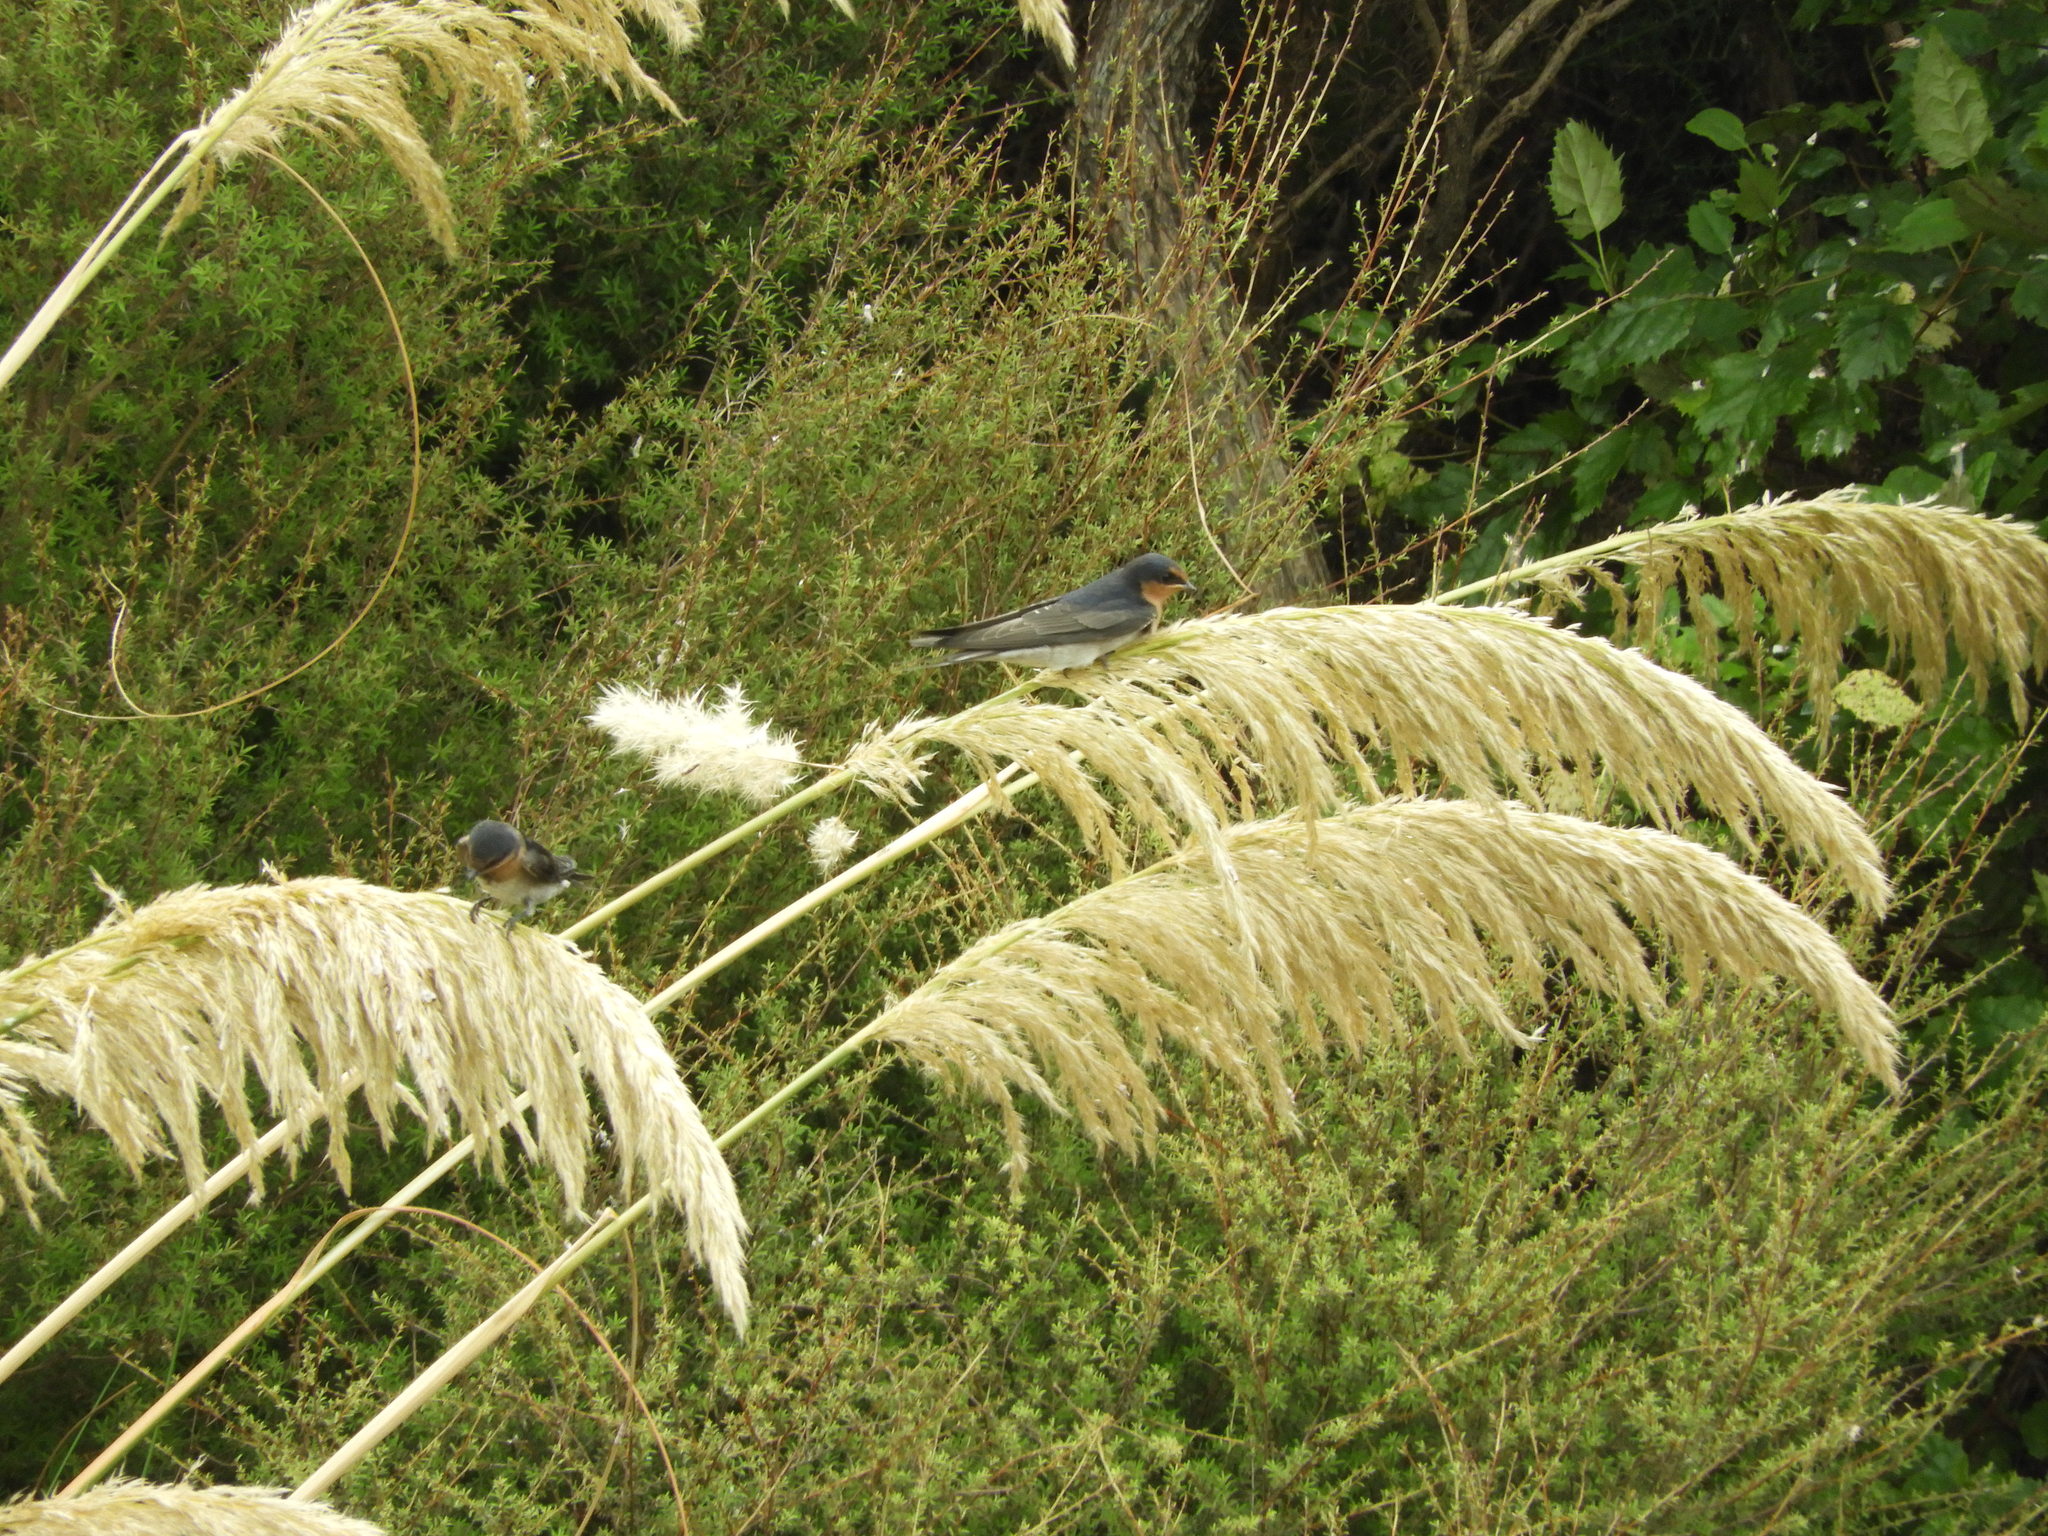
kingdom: Animalia
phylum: Chordata
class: Aves
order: Passeriformes
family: Hirundinidae
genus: Hirundo
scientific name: Hirundo neoxena
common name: Welcome swallow
